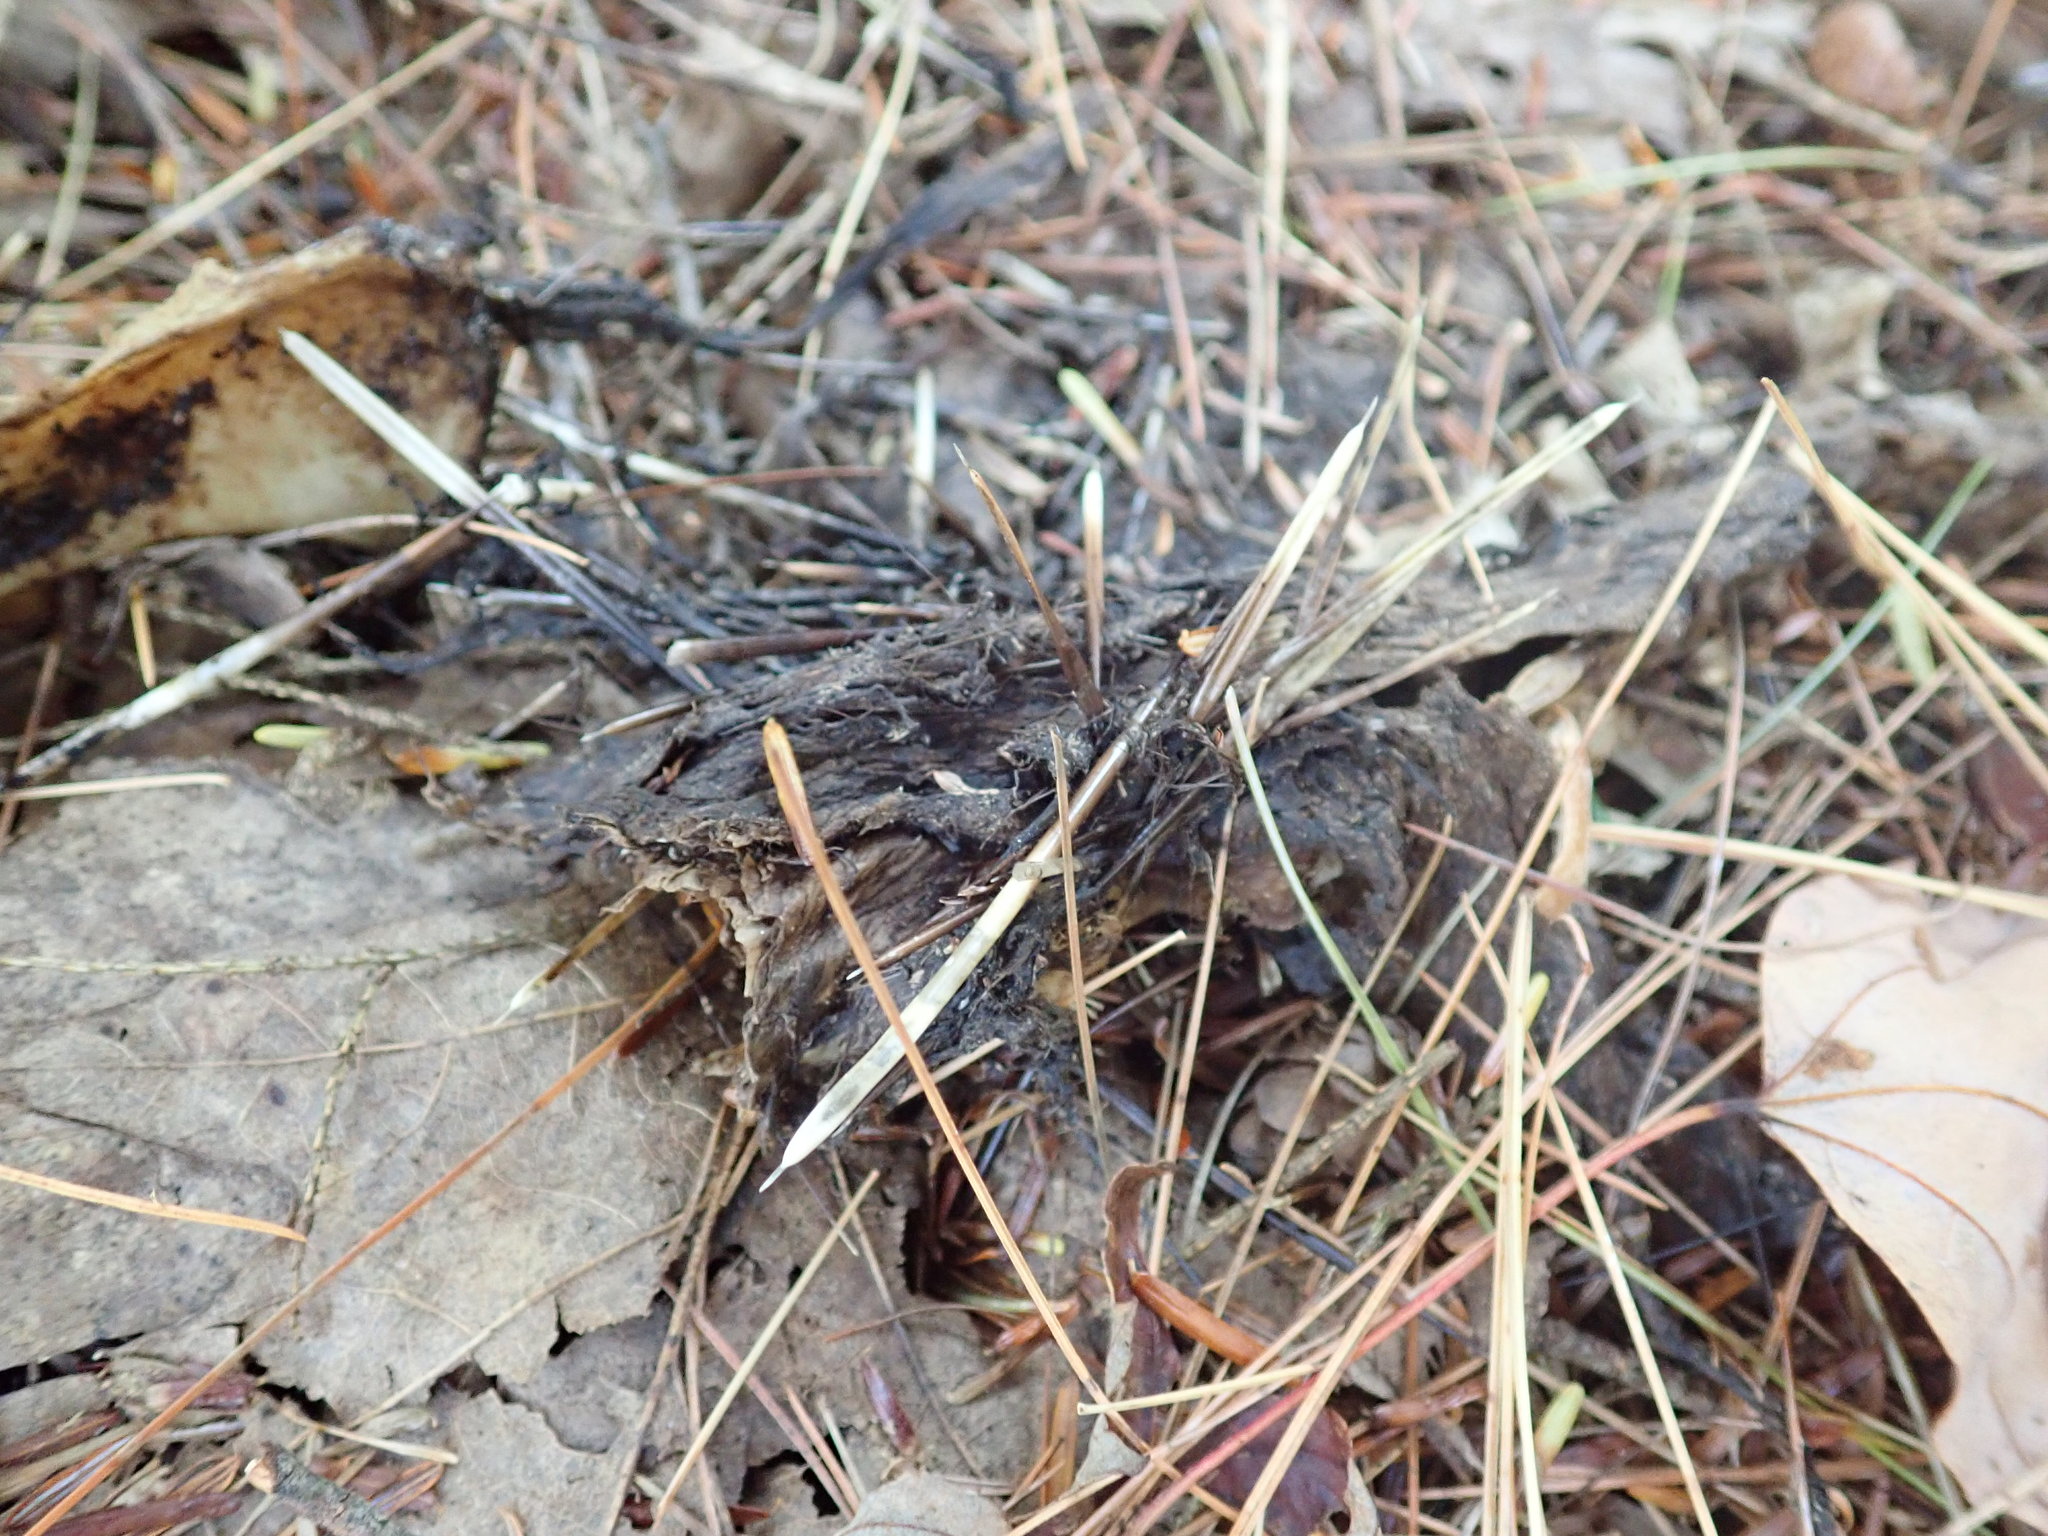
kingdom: Animalia
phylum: Chordata
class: Mammalia
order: Rodentia
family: Erethizontidae
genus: Erethizon
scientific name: Erethizon dorsatus
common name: North american porcupine
